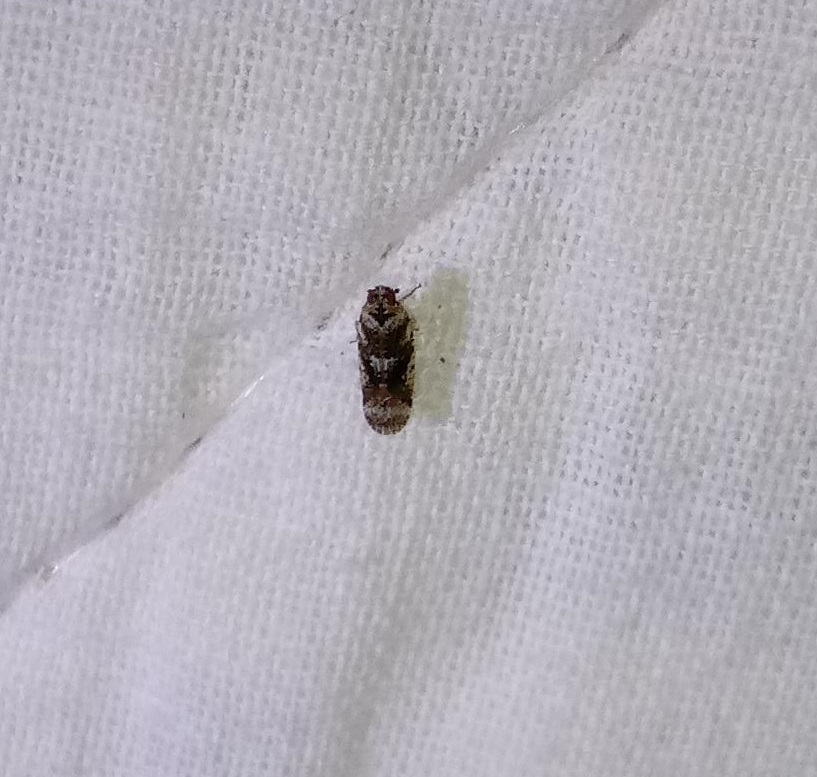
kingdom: Animalia
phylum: Arthropoda
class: Insecta
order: Hemiptera
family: Achilidae
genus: Catonia
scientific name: Catonia cinctifrons
